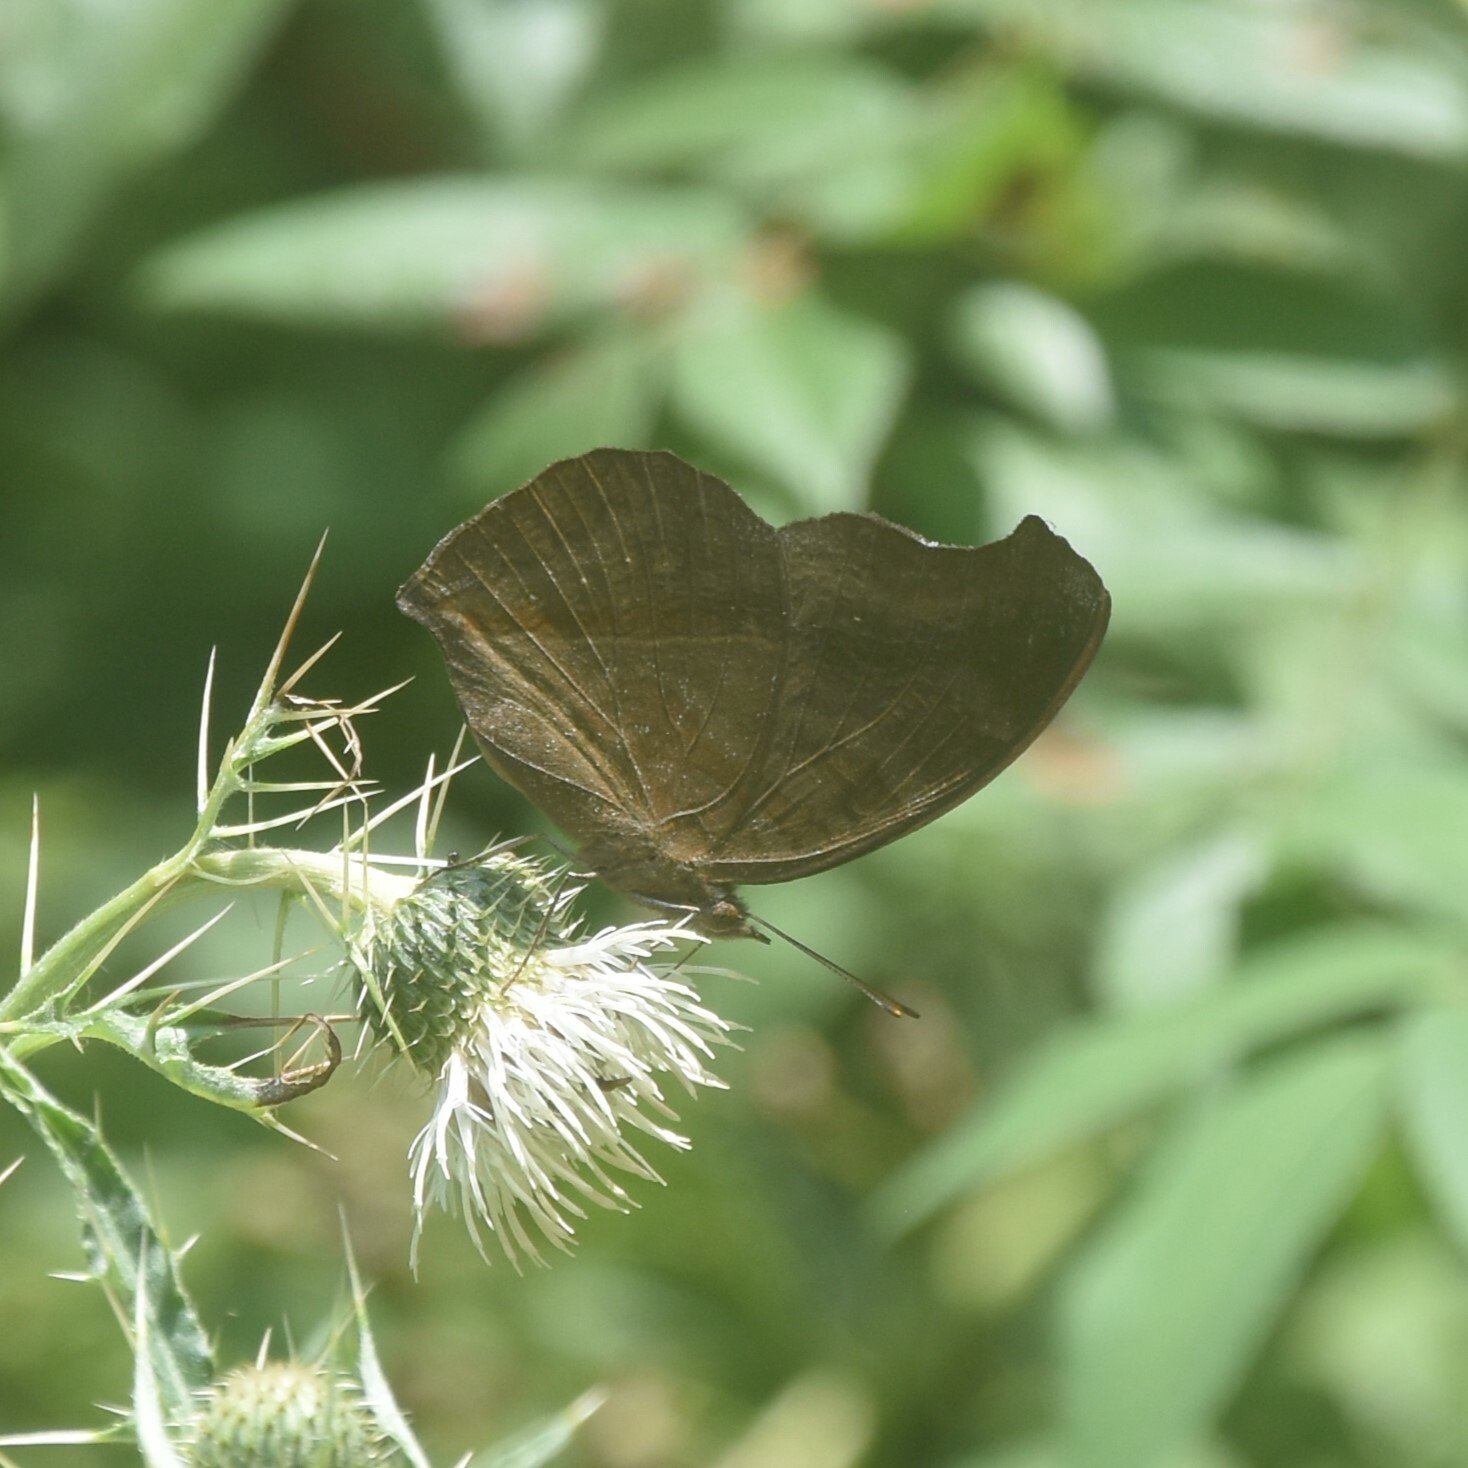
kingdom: Animalia
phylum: Arthropoda
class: Insecta
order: Lepidoptera
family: Nymphalidae
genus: Junonia
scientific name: Junonia iphita
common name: Chocolate pansy
